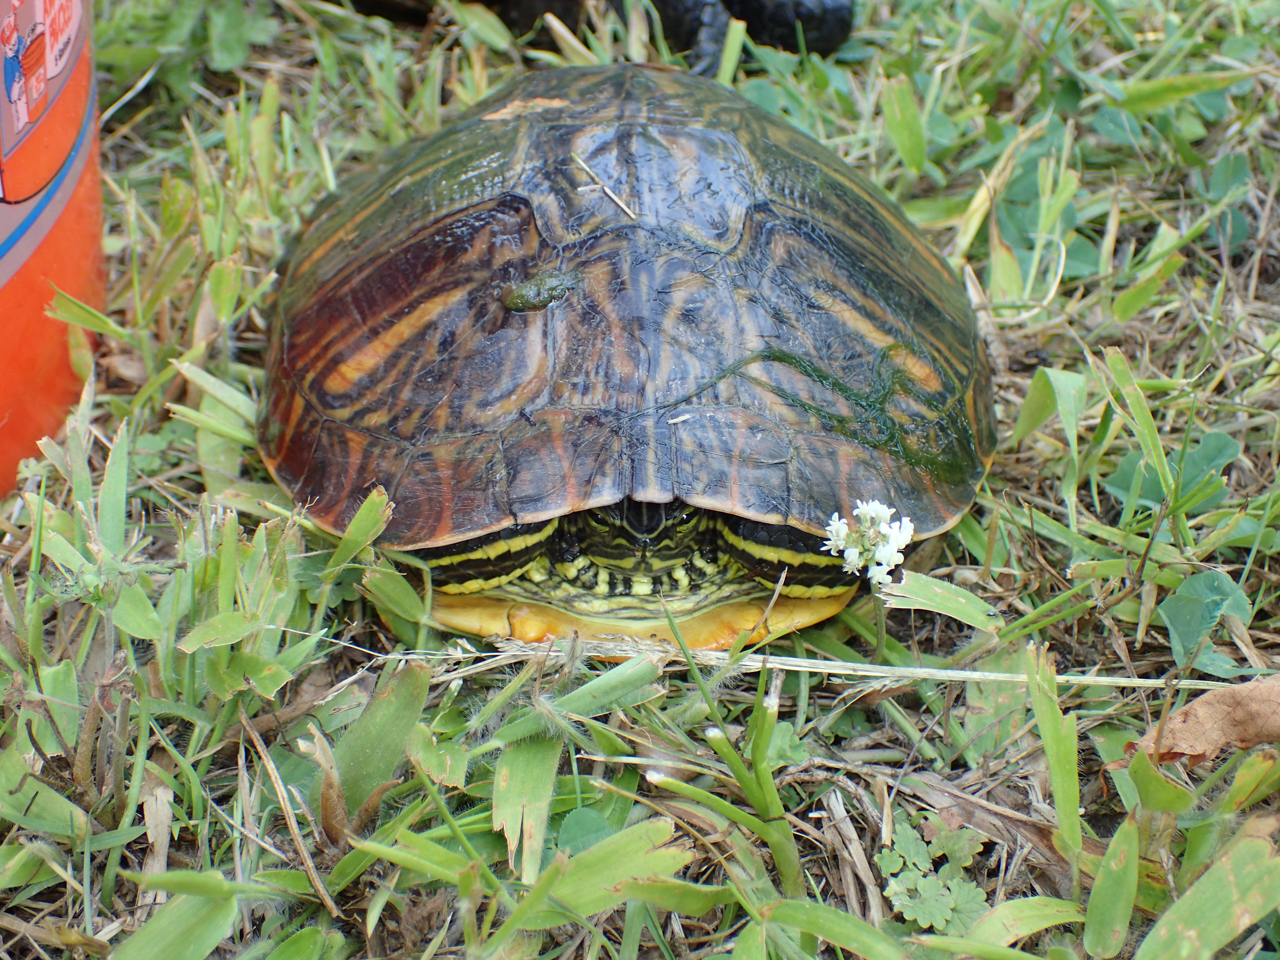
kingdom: Animalia
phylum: Chordata
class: Testudines
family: Emydidae
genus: Trachemys
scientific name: Trachemys scripta
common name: Slider
